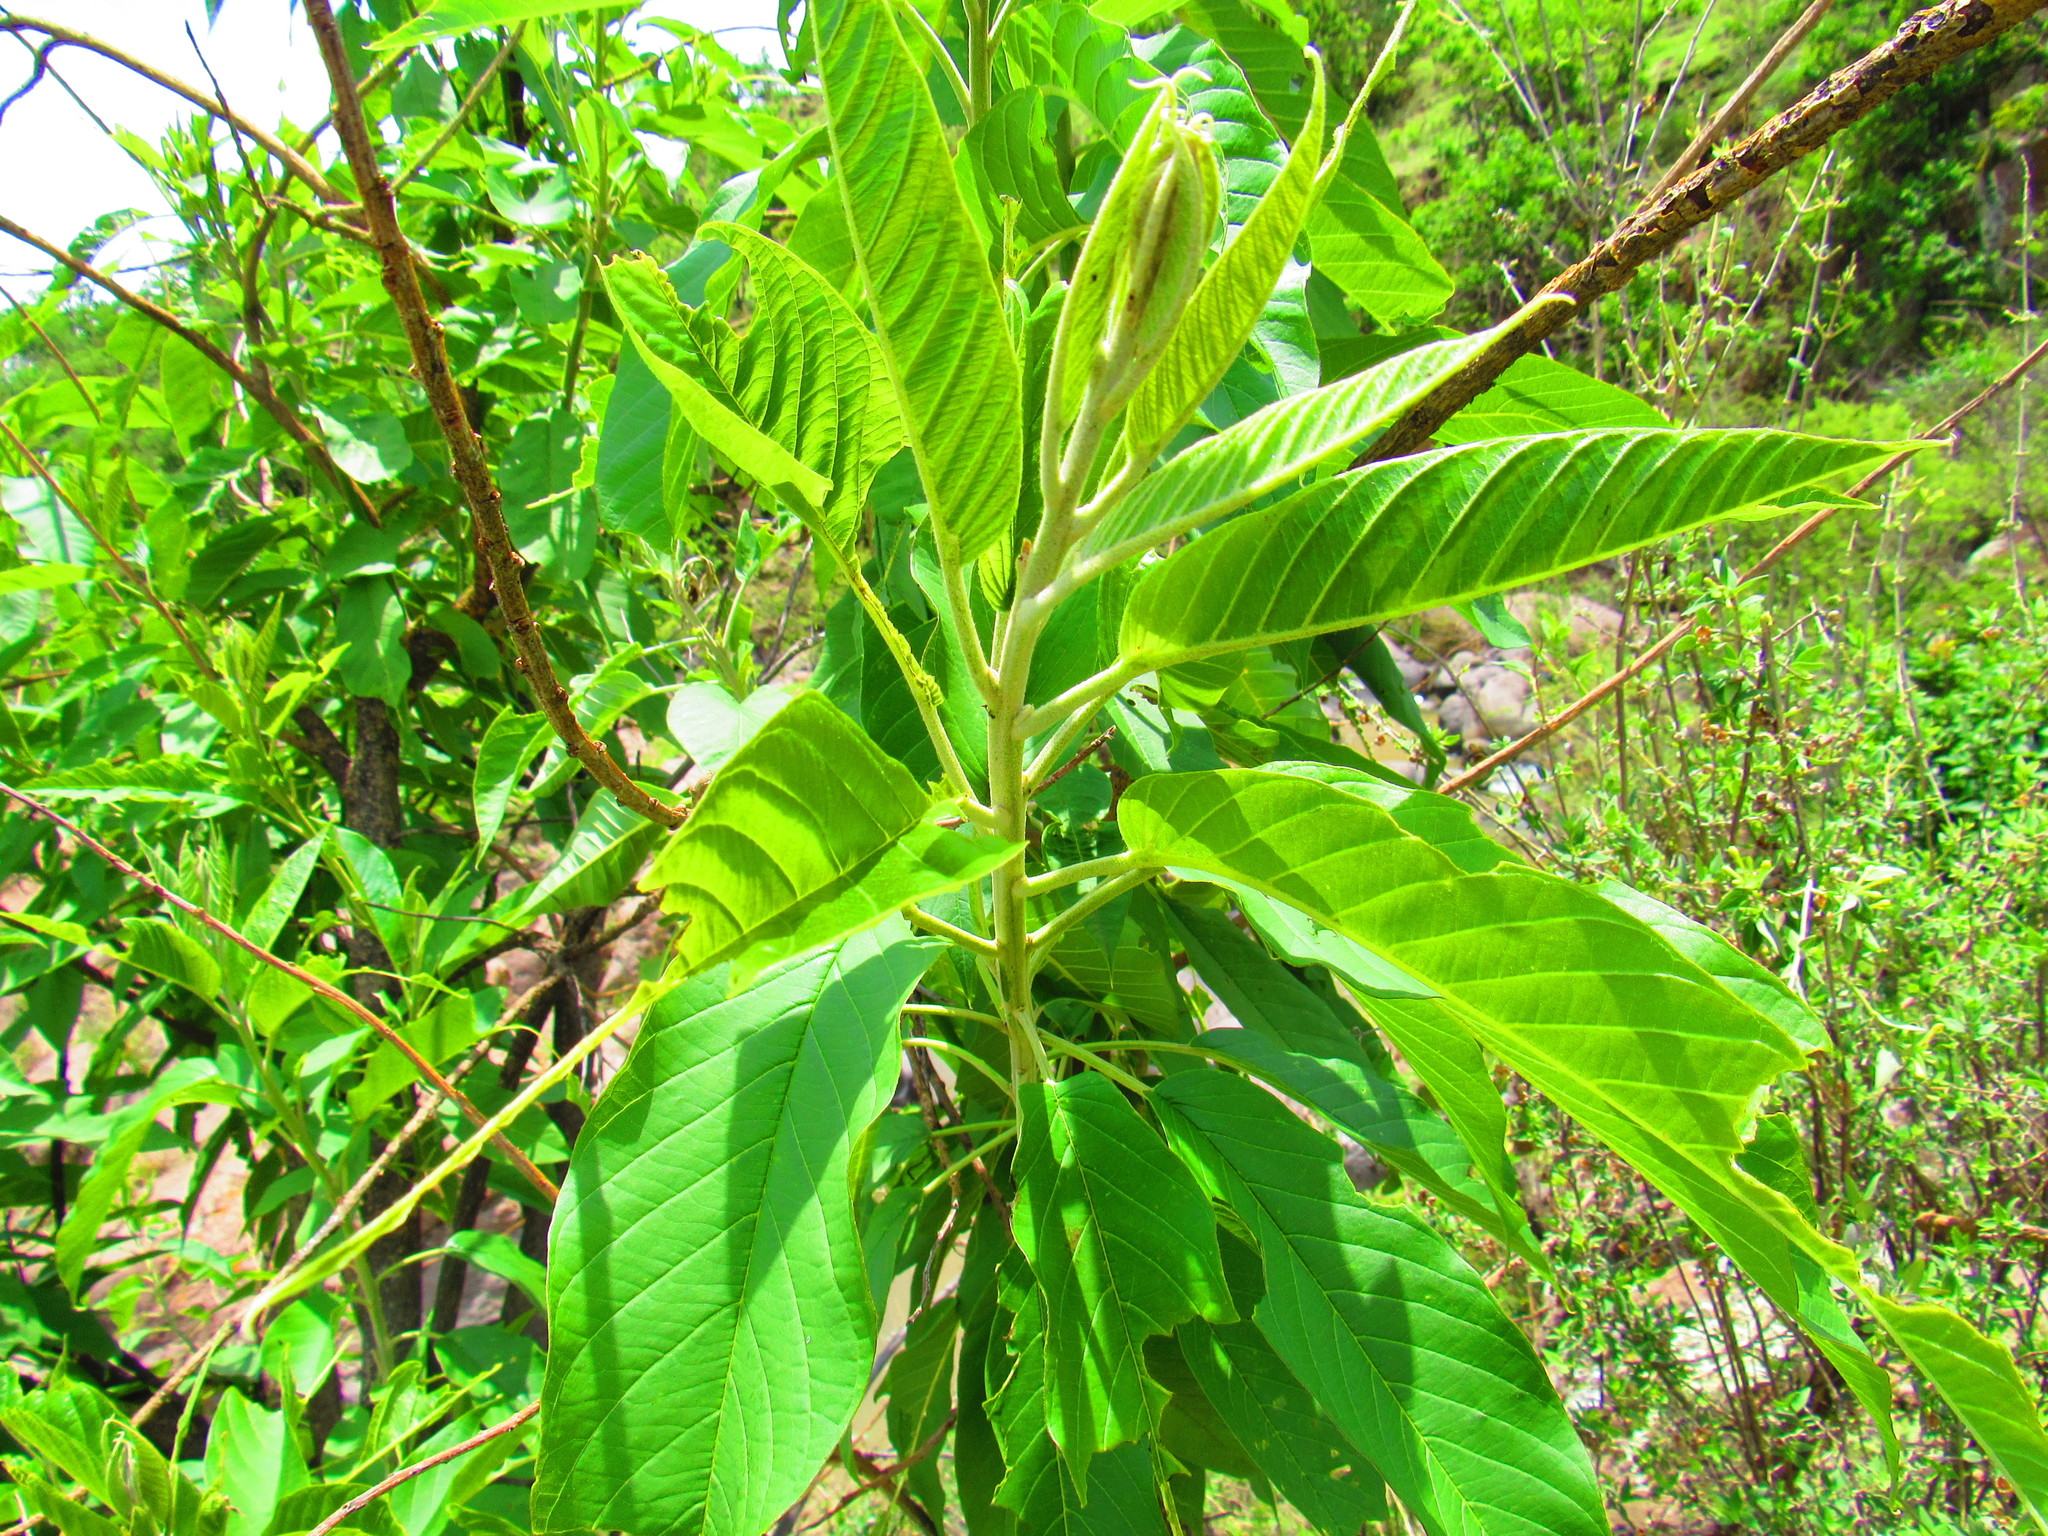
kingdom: Plantae
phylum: Tracheophyta
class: Magnoliopsida
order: Solanales
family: Convolvulaceae
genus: Ipomoea
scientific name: Ipomoea murucoides
